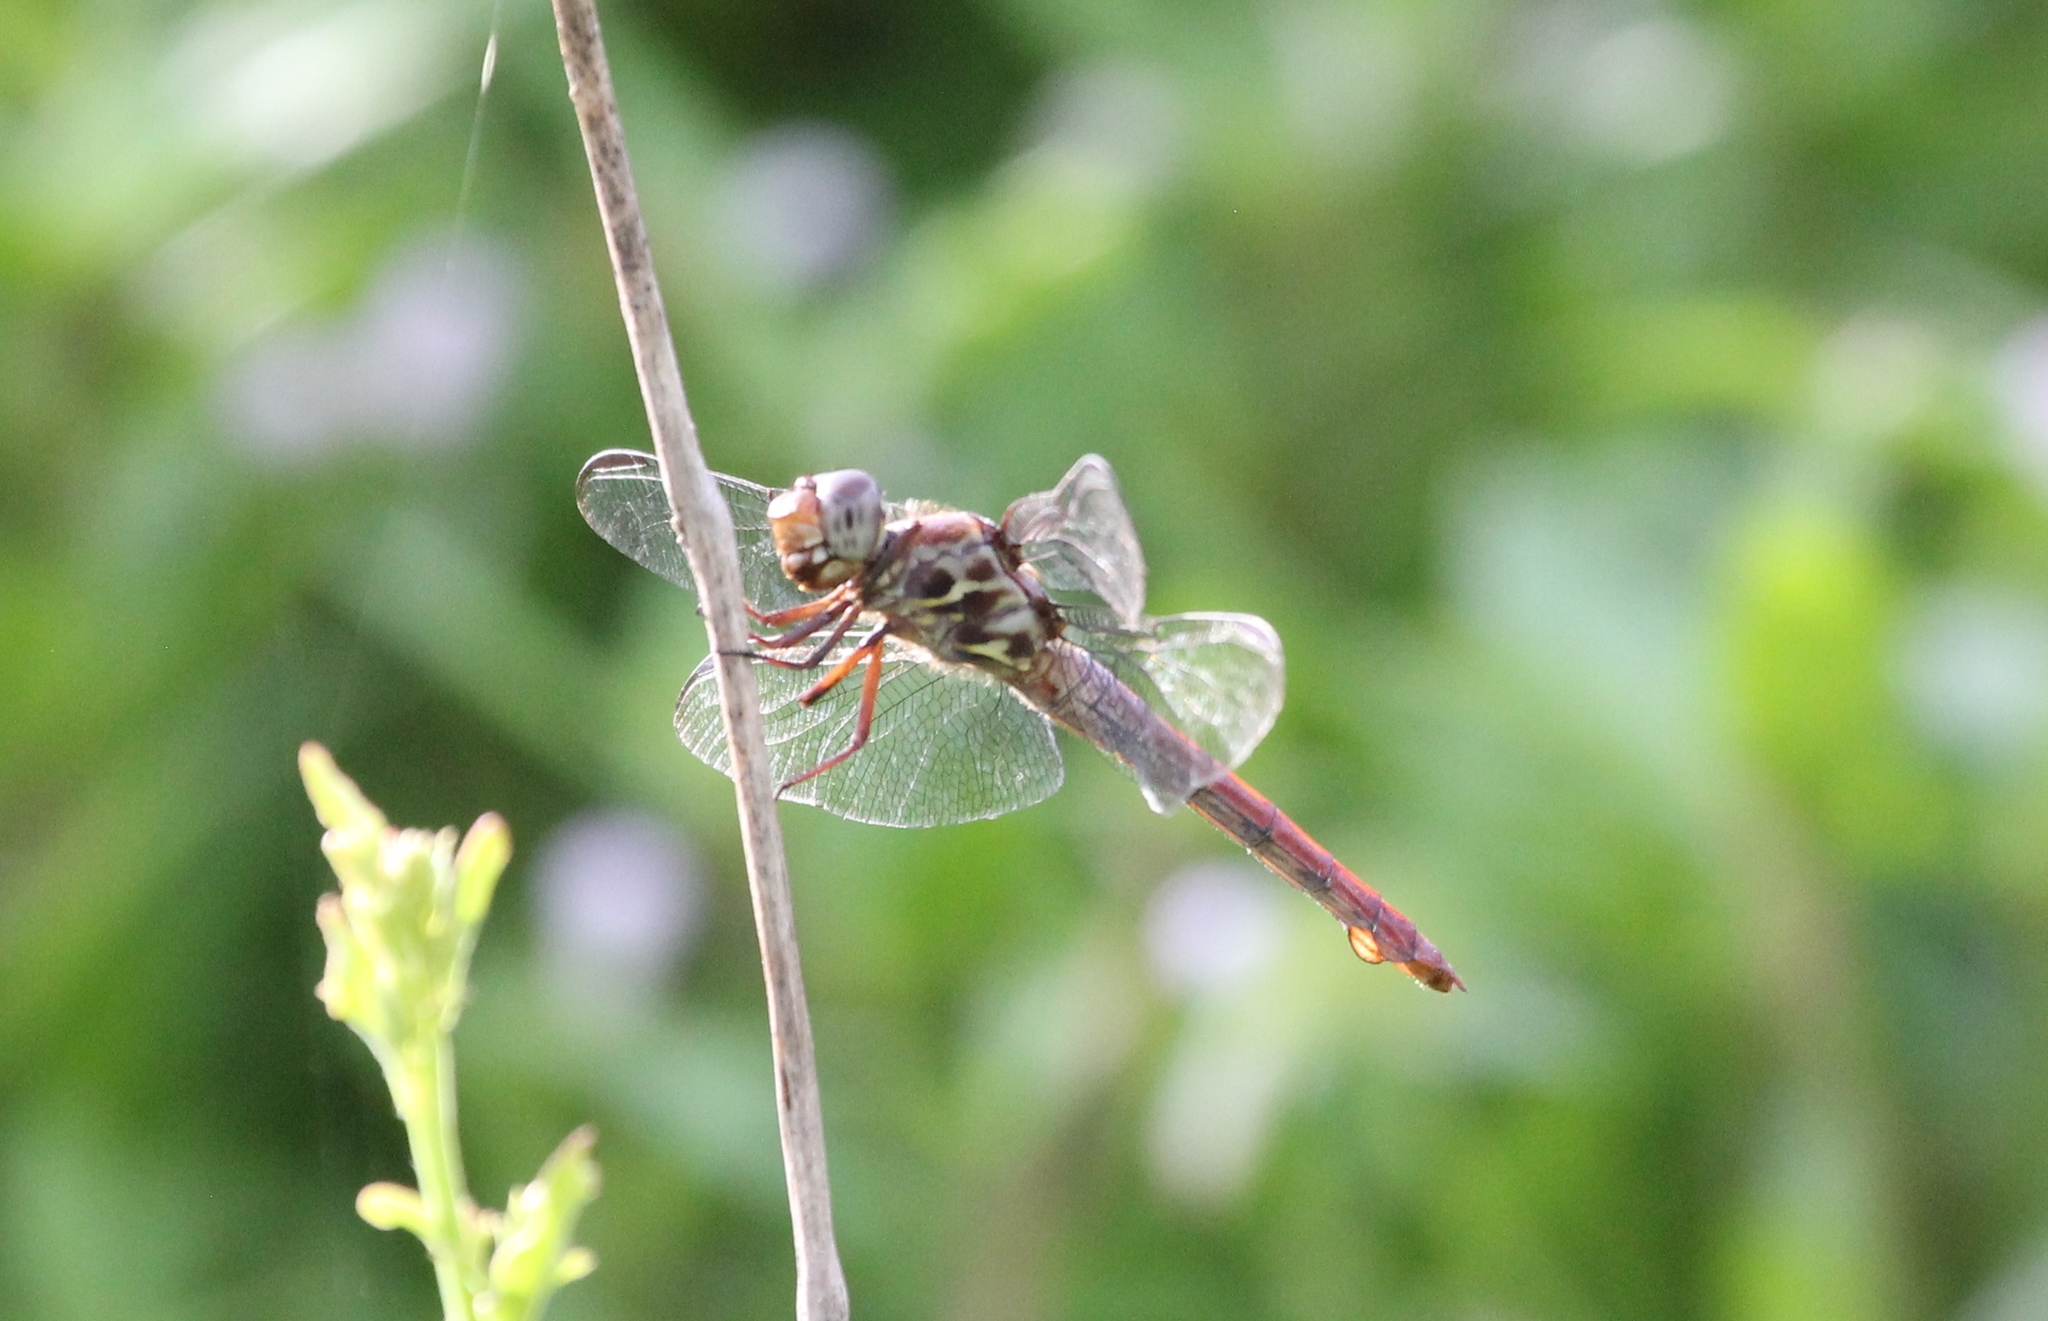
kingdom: Animalia
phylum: Arthropoda
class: Insecta
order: Odonata
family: Libellulidae
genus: Orthemis
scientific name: Orthemis ferruginea
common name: Roseate skimmer
